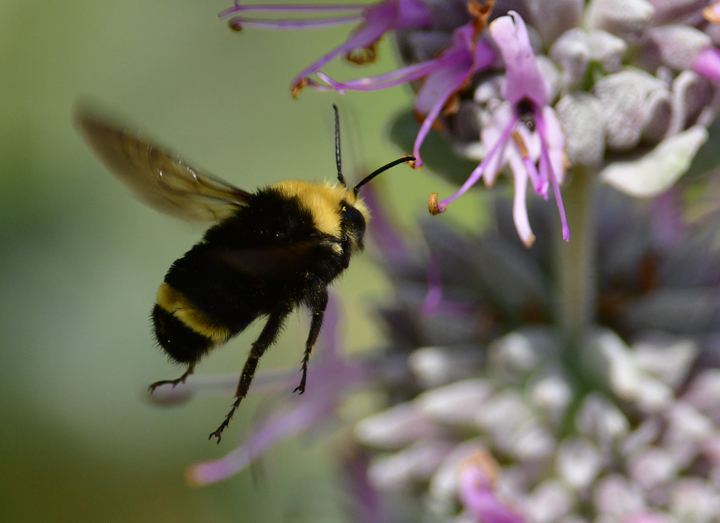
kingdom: Animalia
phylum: Arthropoda
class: Insecta
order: Hymenoptera
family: Apidae
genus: Bombus
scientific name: Bombus vosnesenskii
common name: Vosnesensky bumble bee
